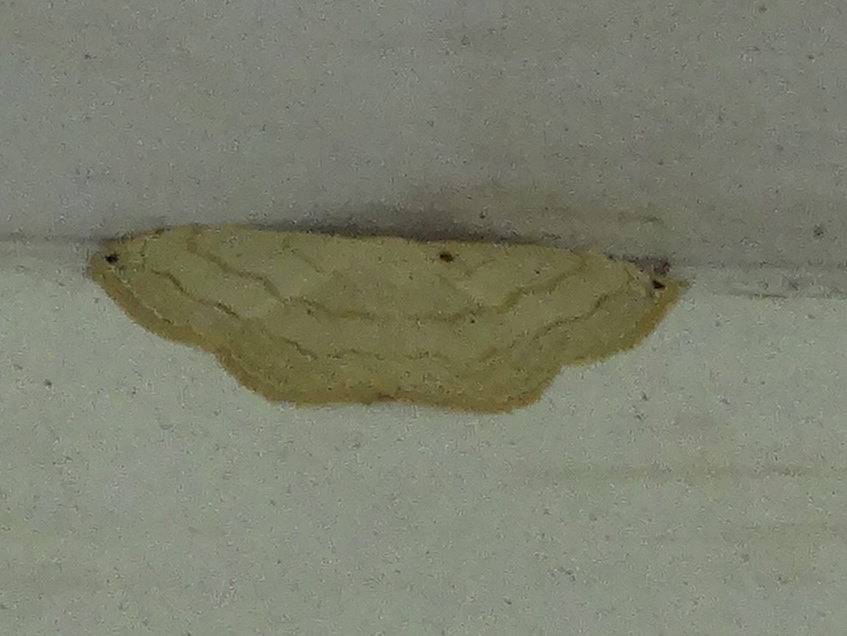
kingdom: Animalia
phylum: Arthropoda
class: Insecta
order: Lepidoptera
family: Geometridae
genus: Scopula
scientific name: Scopula
